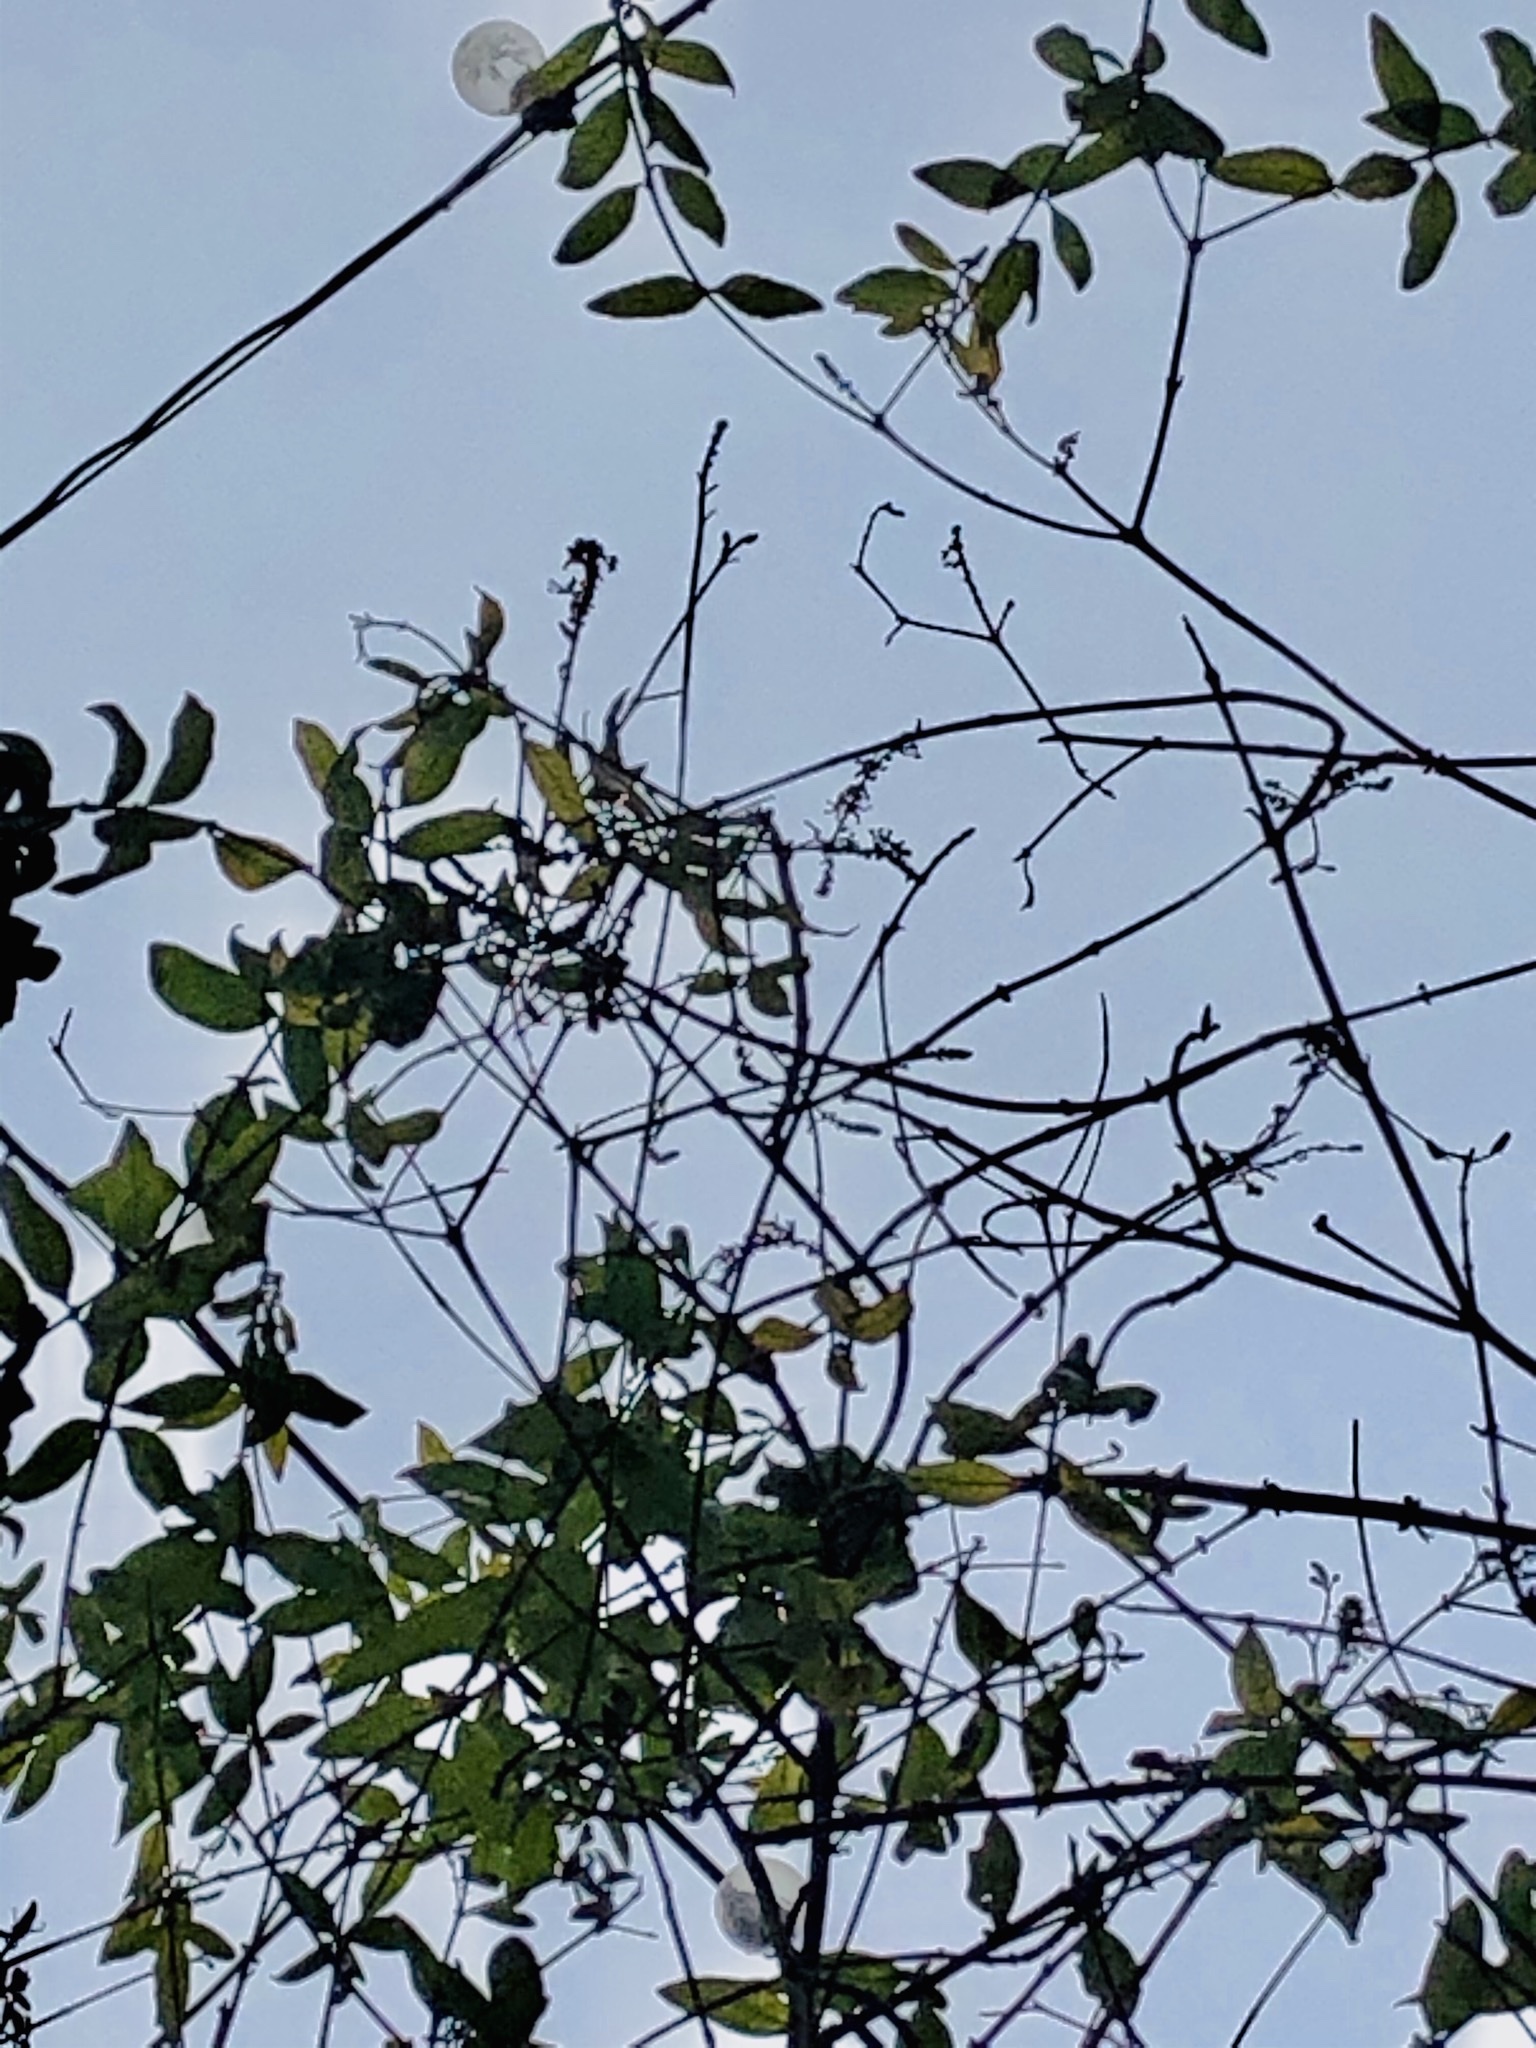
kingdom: Plantae
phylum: Tracheophyta
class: Magnoliopsida
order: Lamiales
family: Scrophulariaceae
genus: Buddleja
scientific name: Buddleja davidii
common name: Butterfly-bush
